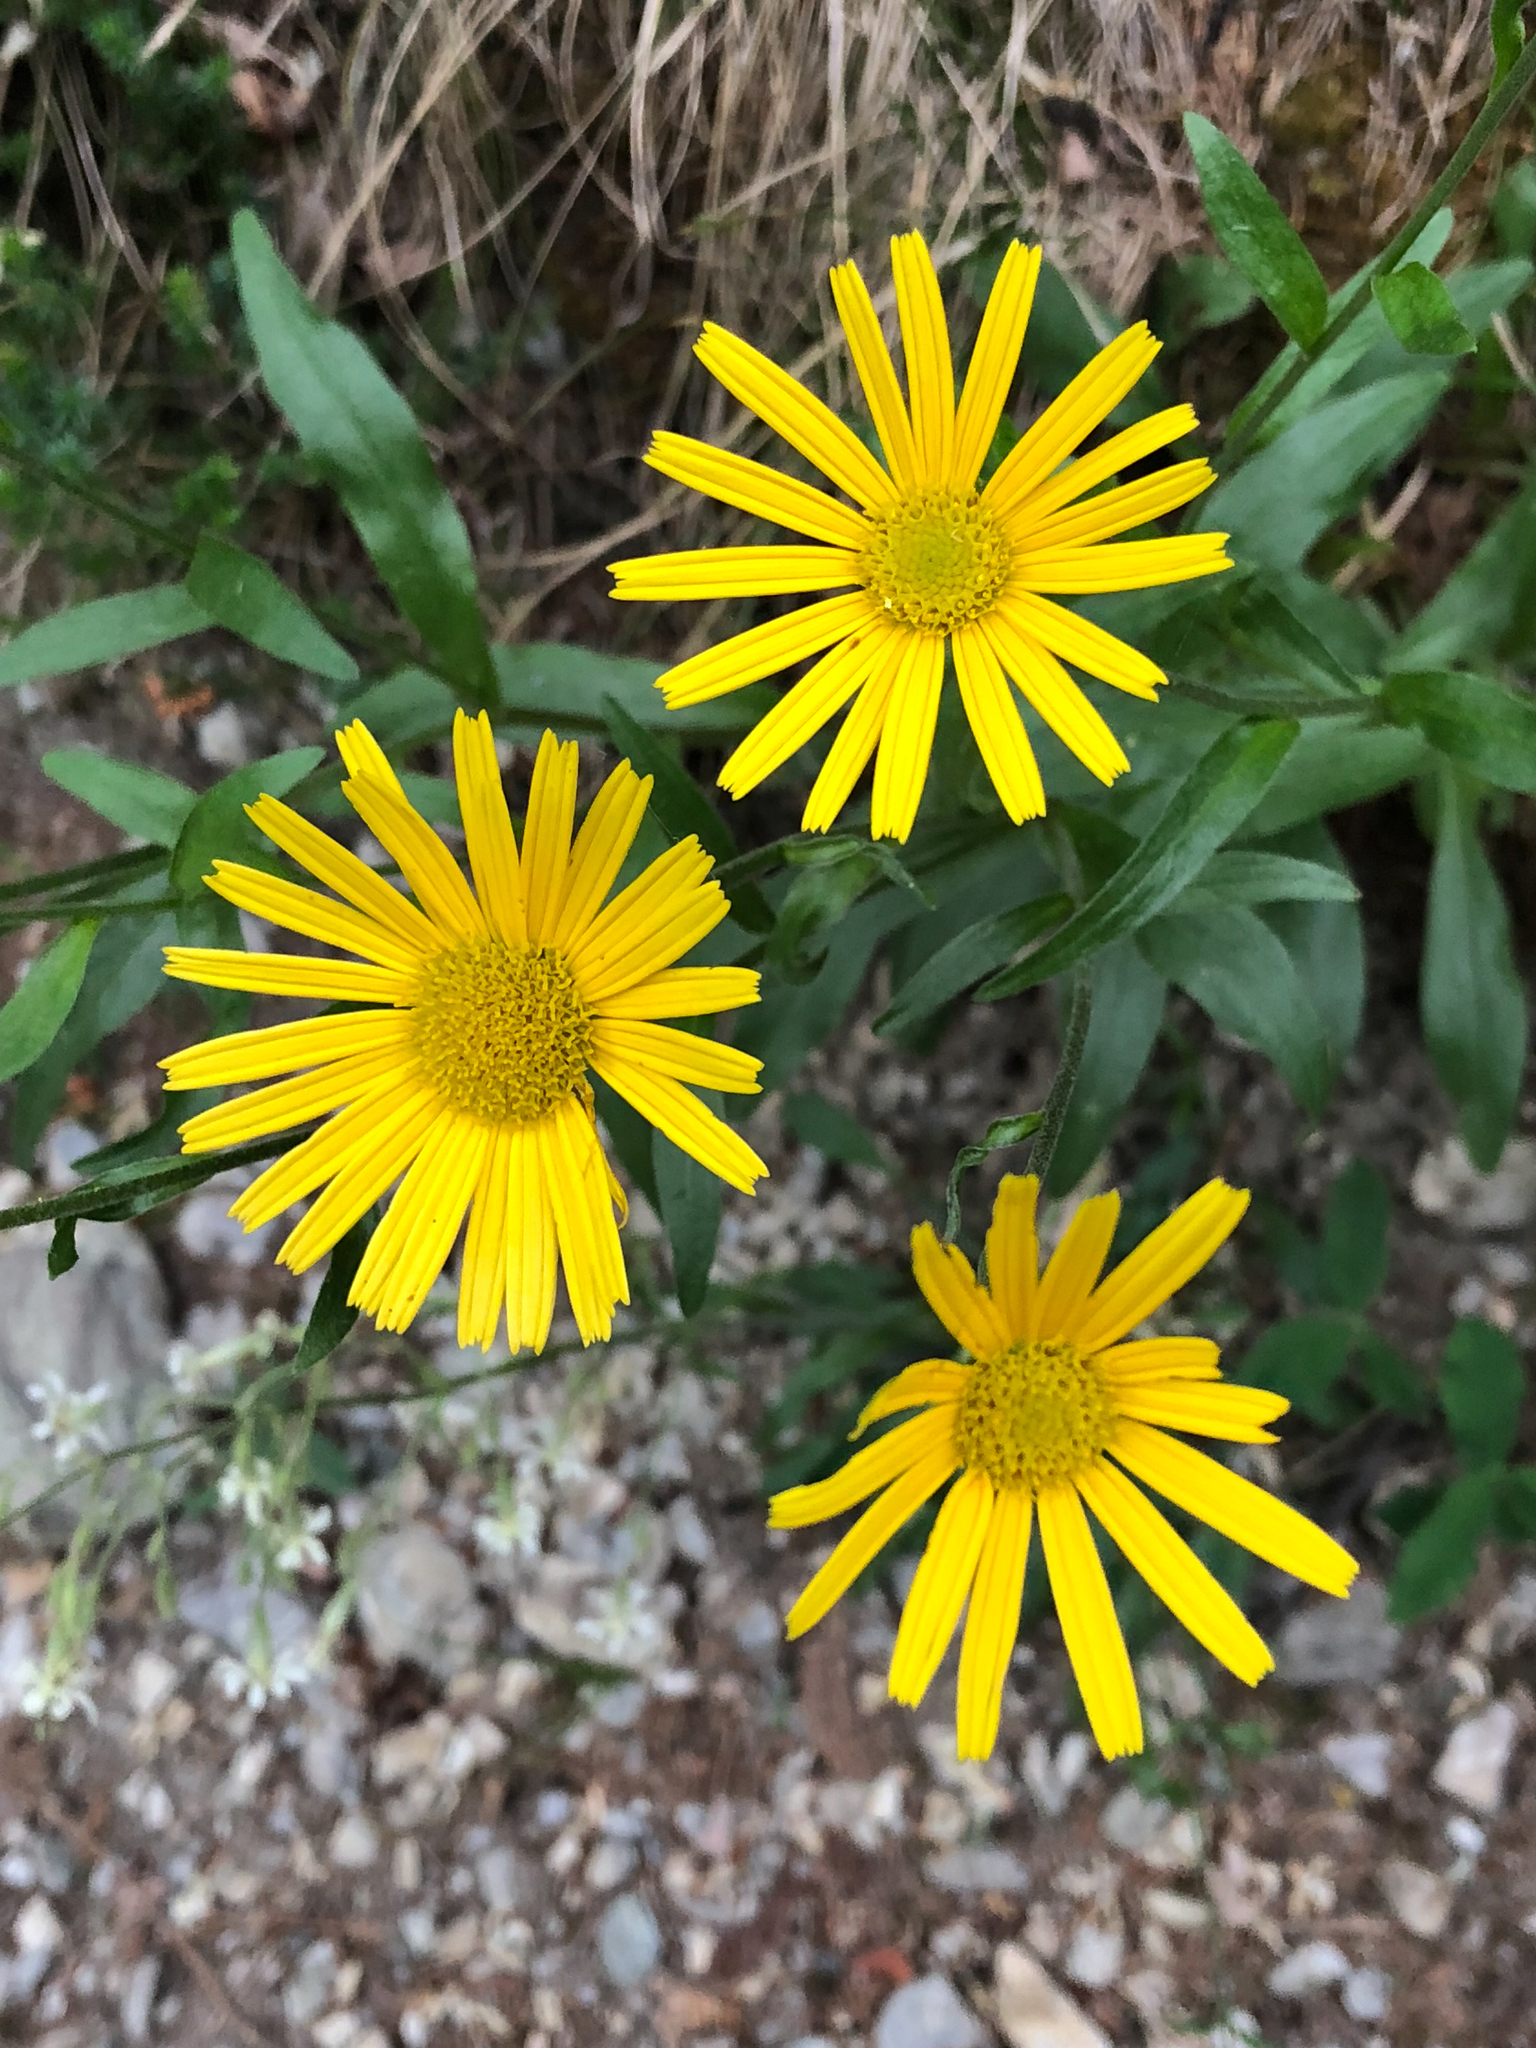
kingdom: Plantae
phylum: Tracheophyta
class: Magnoliopsida
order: Asterales
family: Asteraceae
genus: Buphthalmum
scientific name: Buphthalmum salicifolium
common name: Willow-leaved yellow-oxeye
